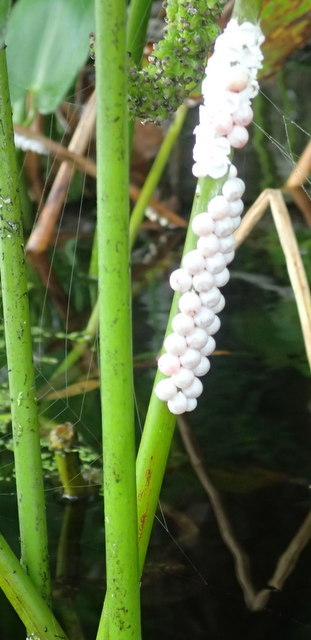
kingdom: Animalia
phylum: Mollusca
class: Gastropoda
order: Architaenioglossa
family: Ampullariidae
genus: Pomacea
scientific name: Pomacea paludosa
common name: Florida applesnail
